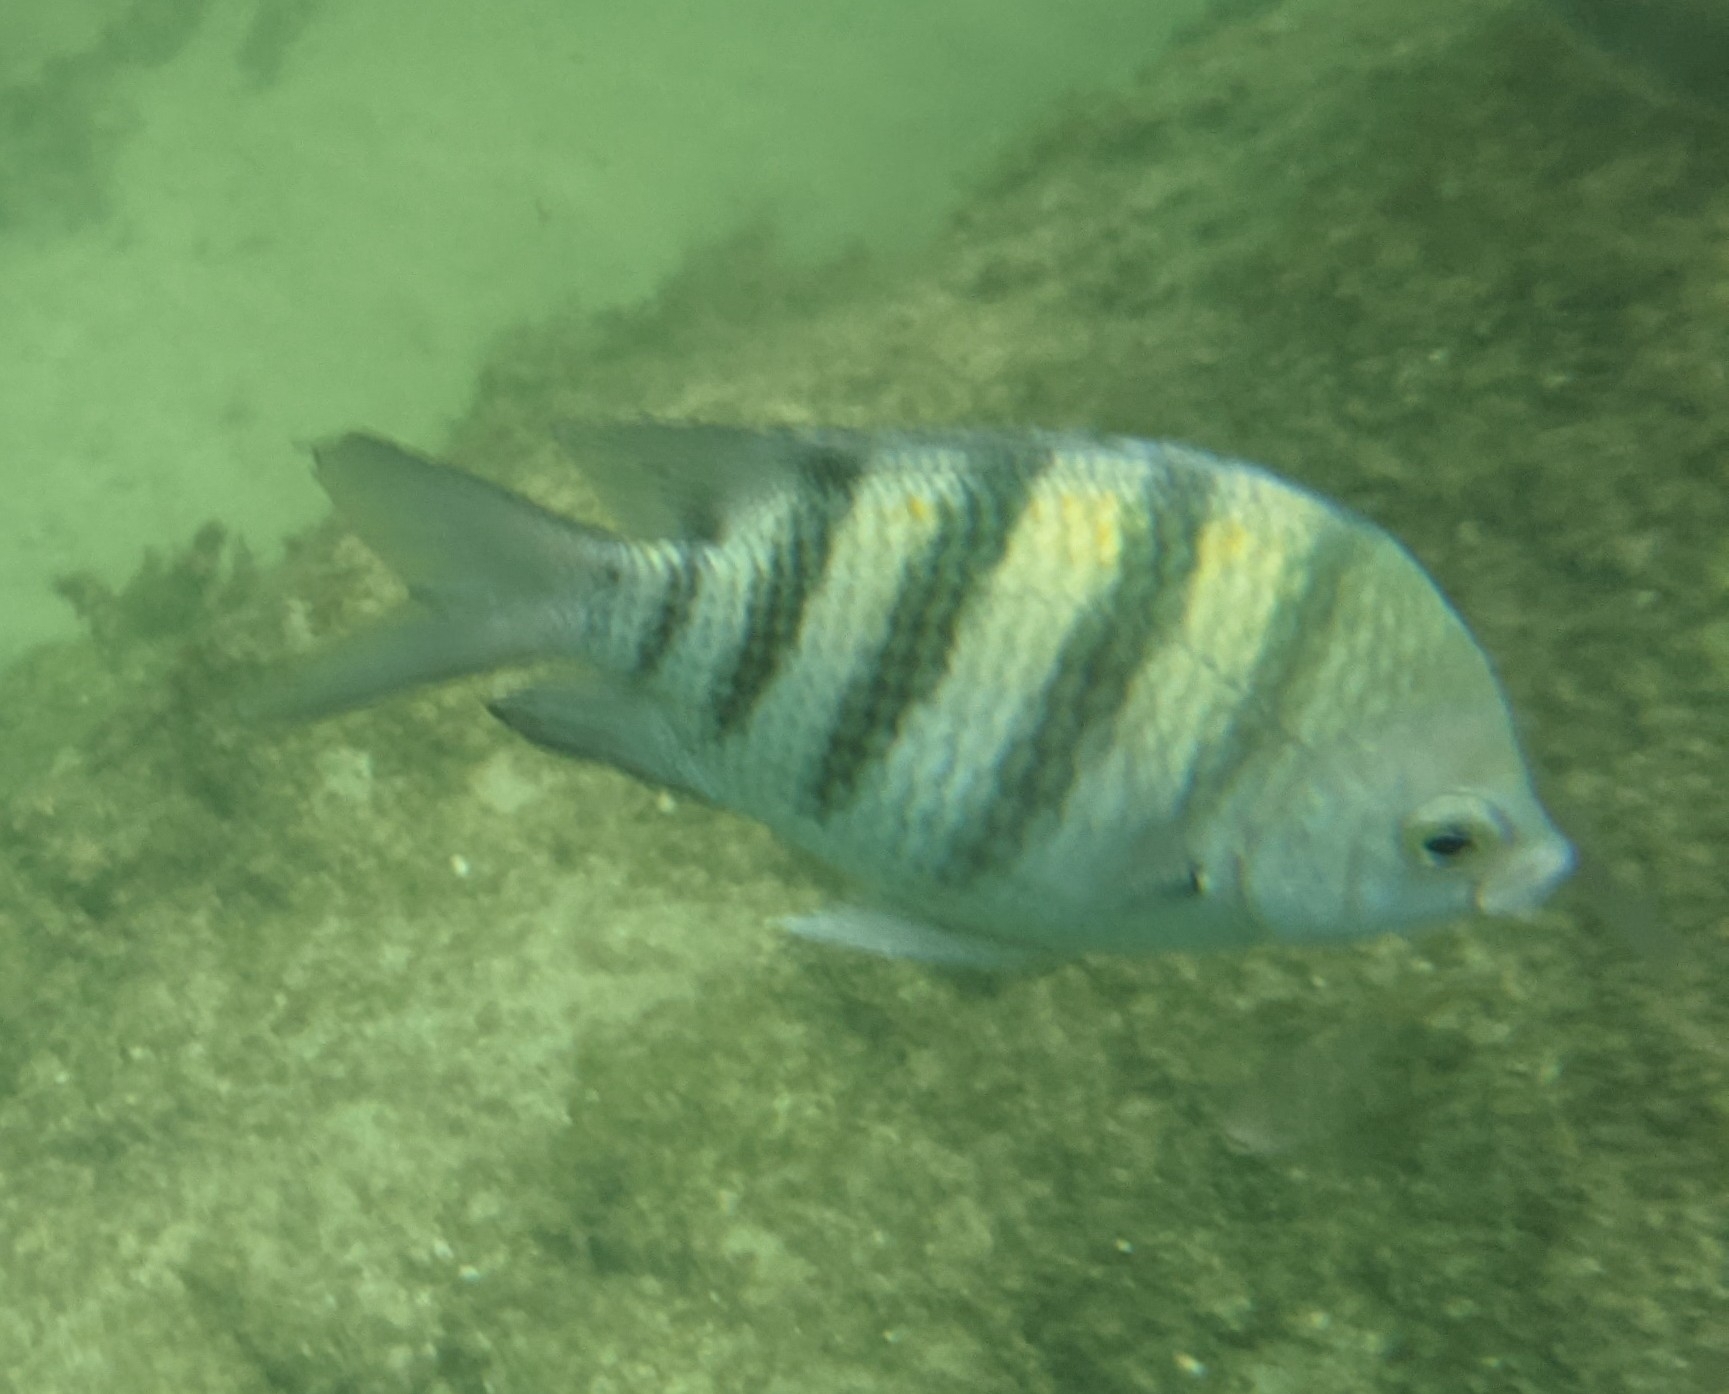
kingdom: Animalia
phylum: Chordata
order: Perciformes
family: Pomacentridae
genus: Abudefduf
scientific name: Abudefduf saxatilis
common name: Sergeant major
